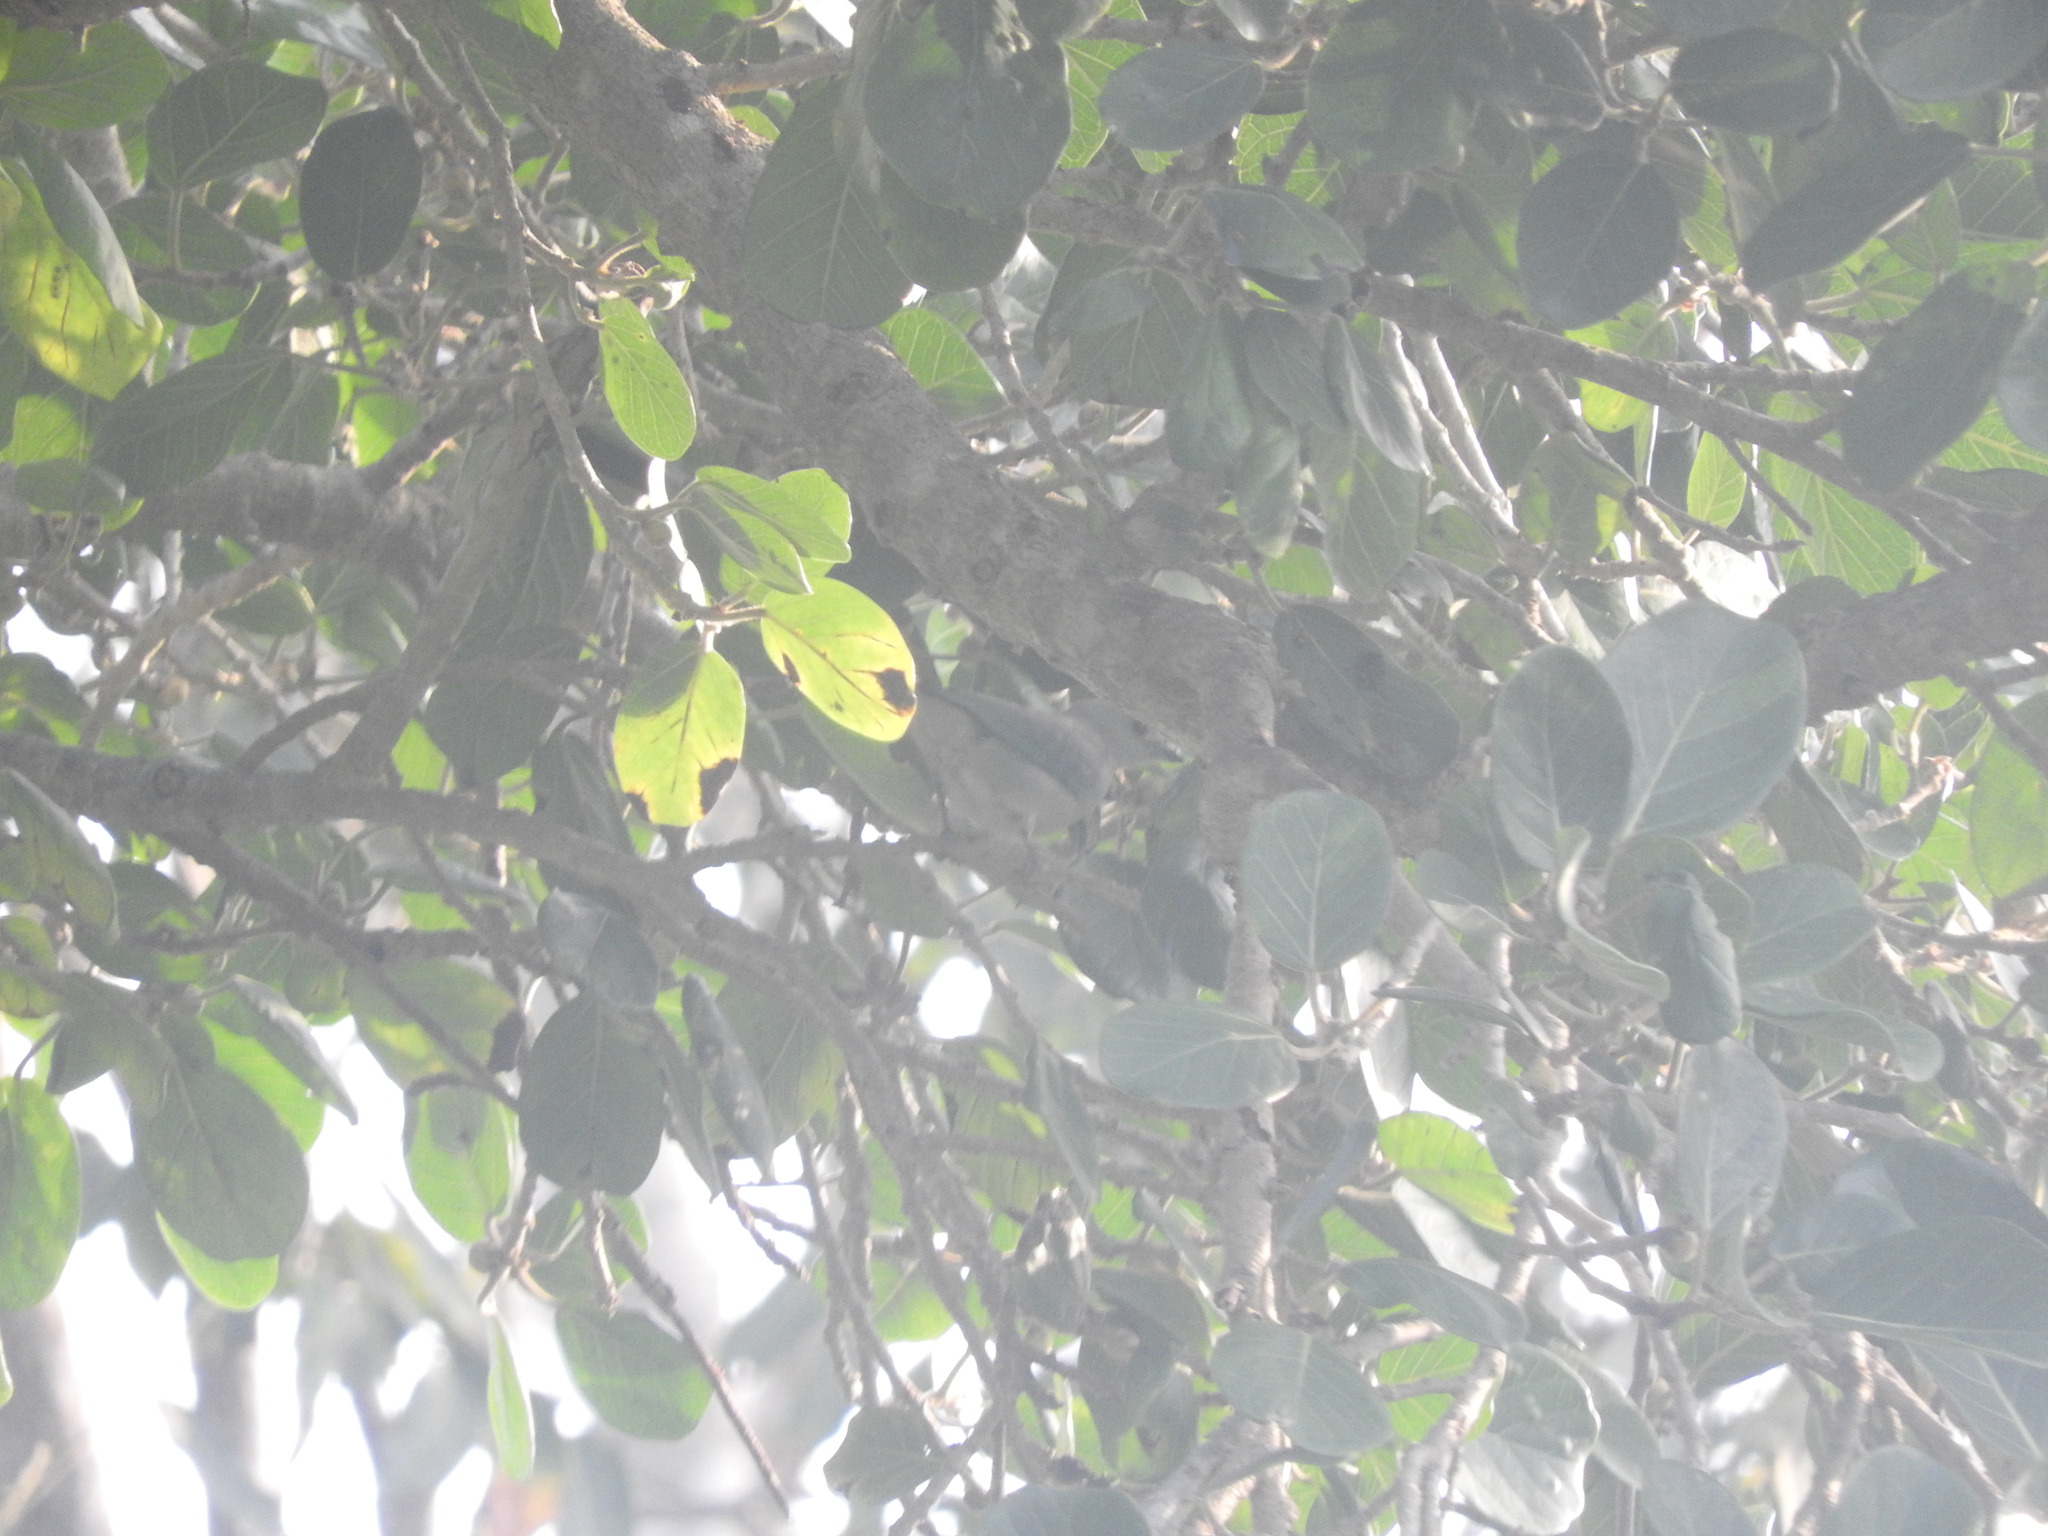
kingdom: Animalia
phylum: Chordata
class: Aves
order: Passeriformes
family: Thraupidae
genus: Thraupis
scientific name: Thraupis episcopus
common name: Blue-grey tanager
